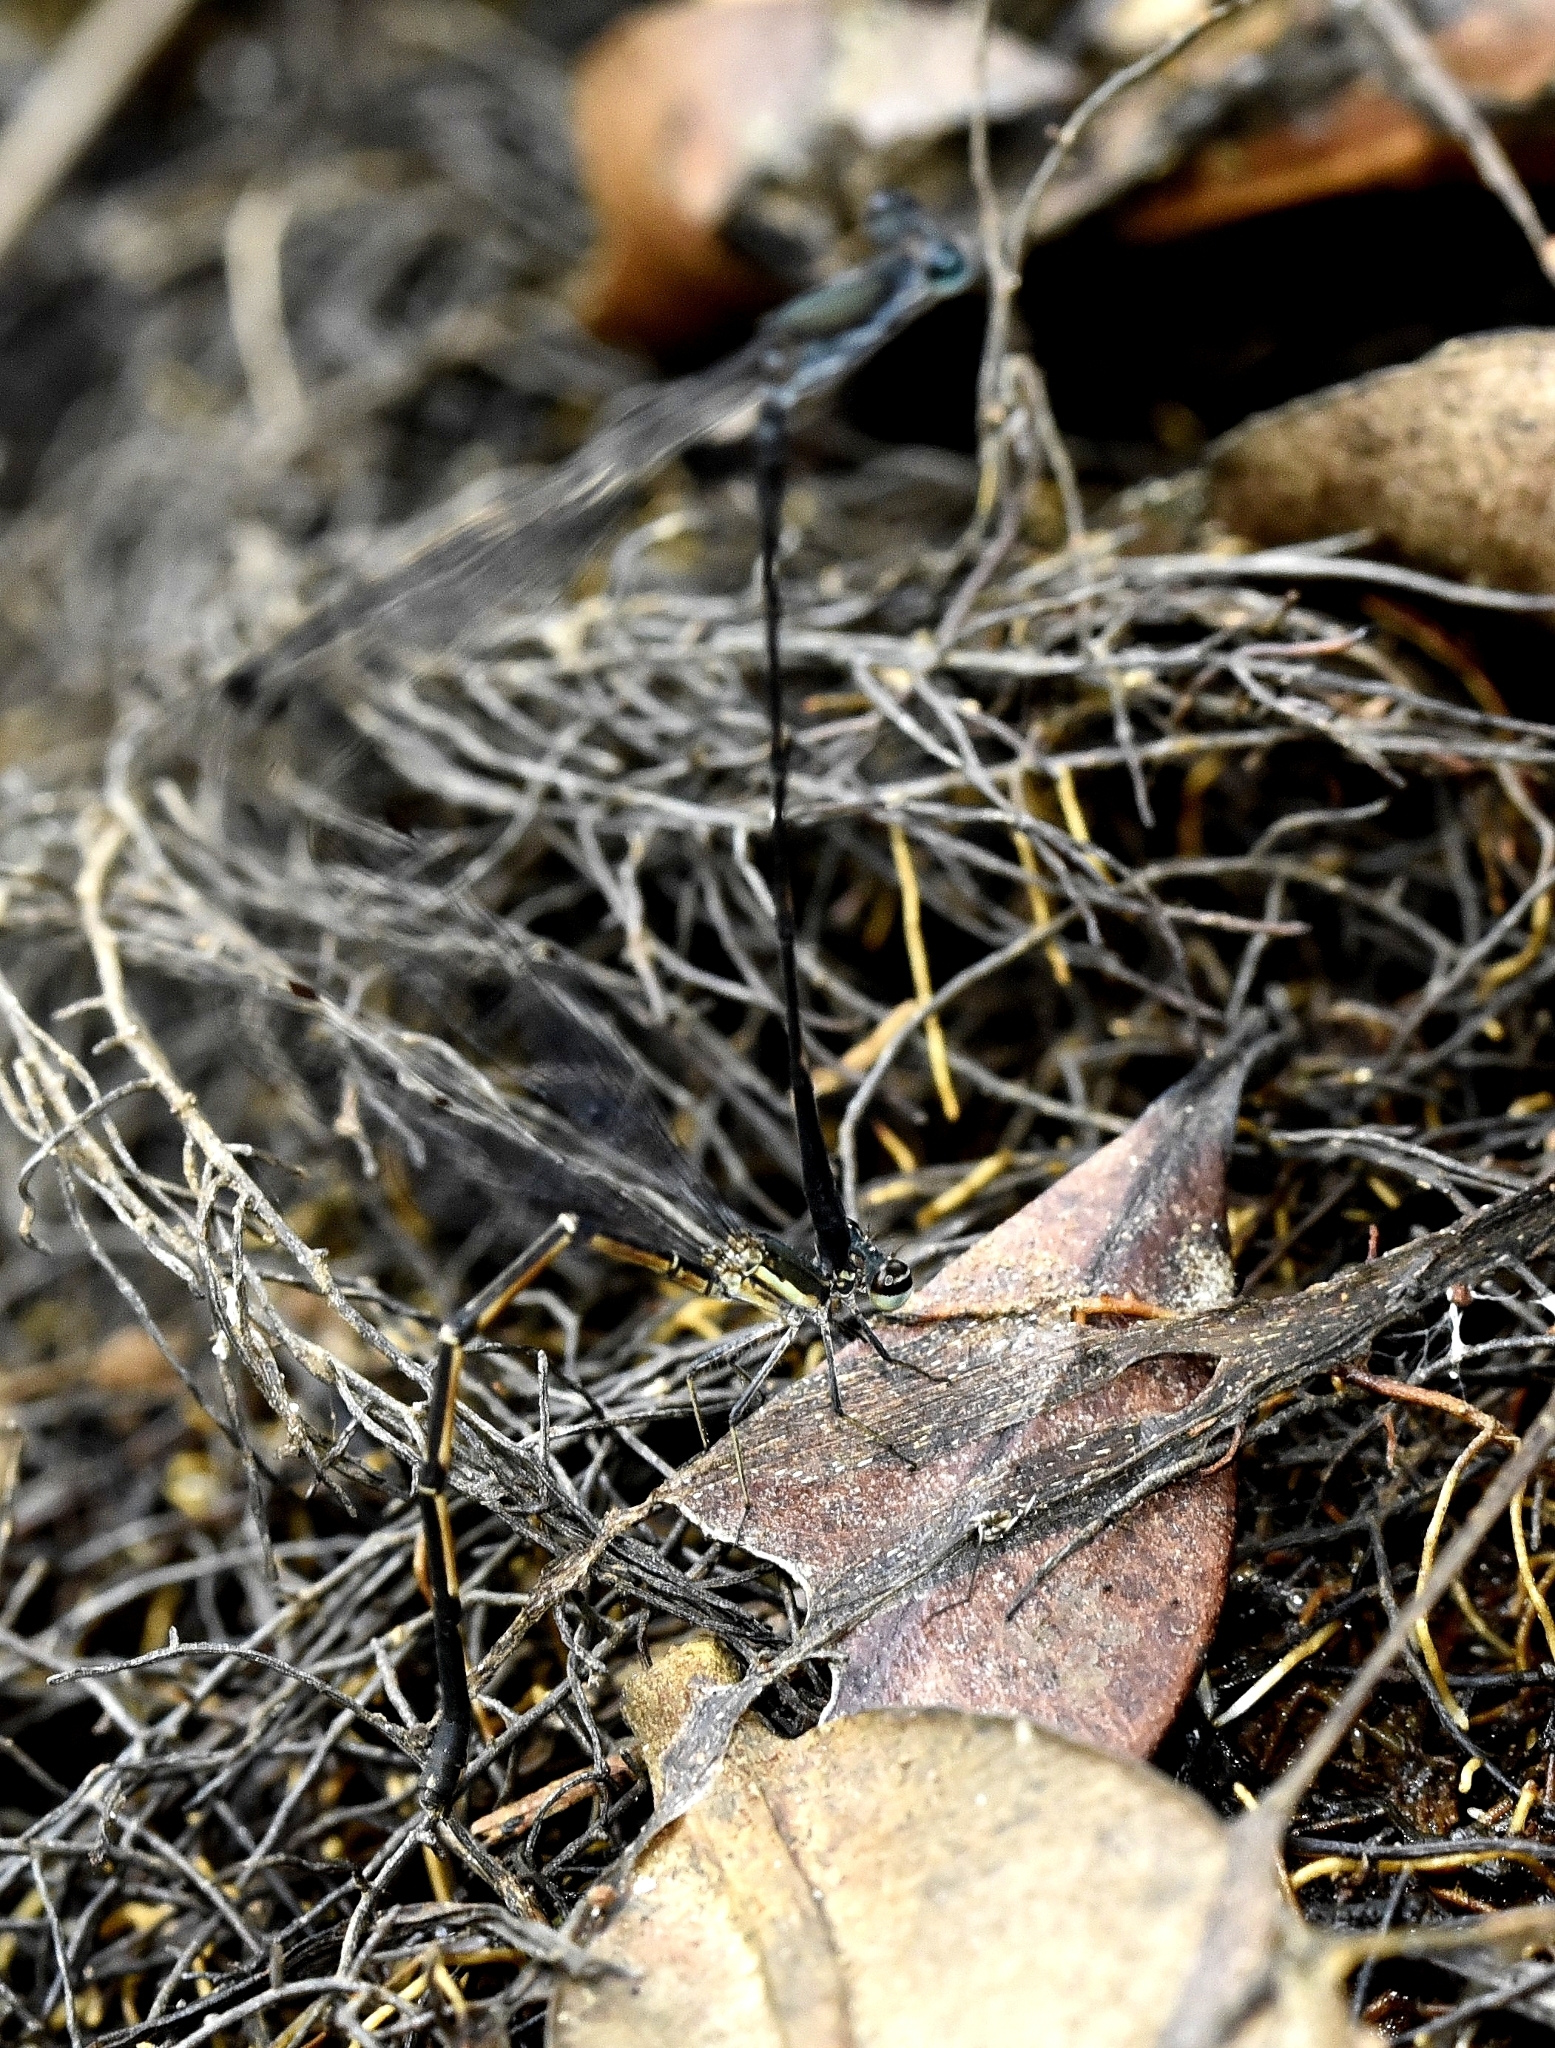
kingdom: Animalia
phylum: Arthropoda
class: Insecta
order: Odonata
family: Platycnemididae
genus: Elattoneura
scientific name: Elattoneura tetrica
